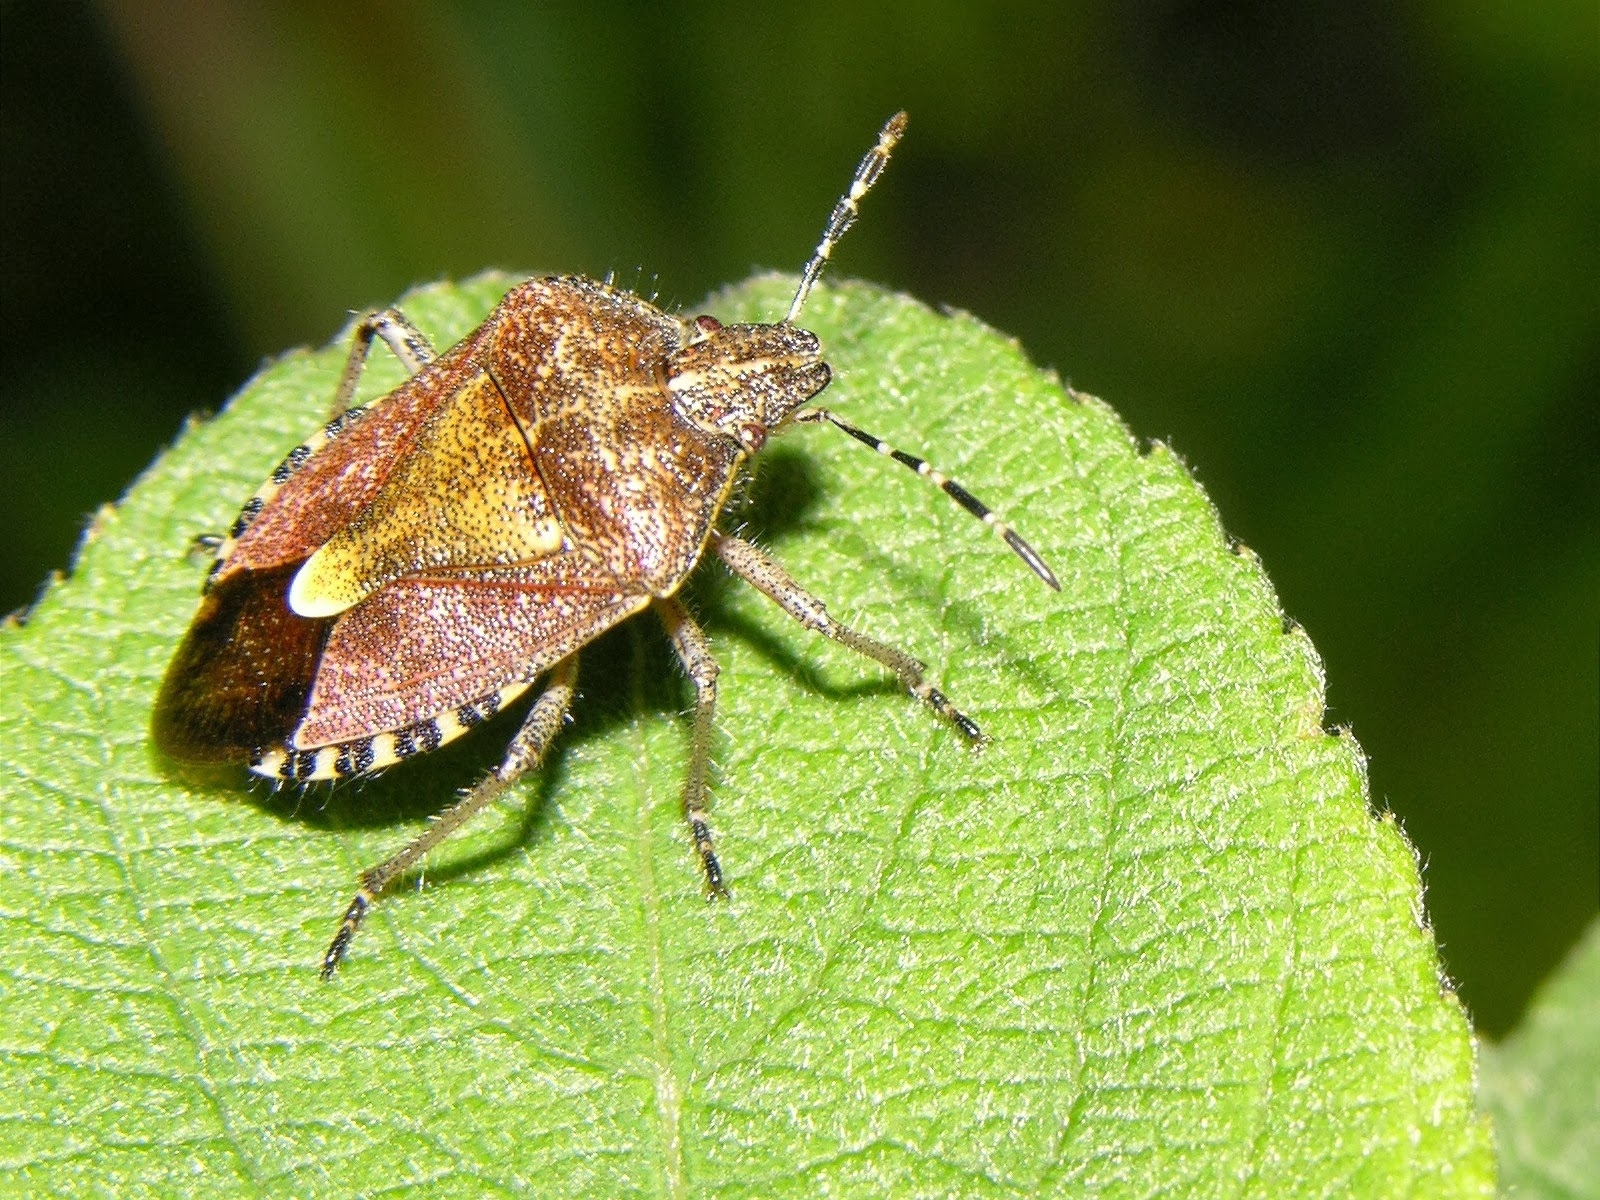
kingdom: Animalia
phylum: Arthropoda
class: Insecta
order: Hemiptera
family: Pentatomidae
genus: Dolycoris
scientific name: Dolycoris baccarum
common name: Sloe bug
